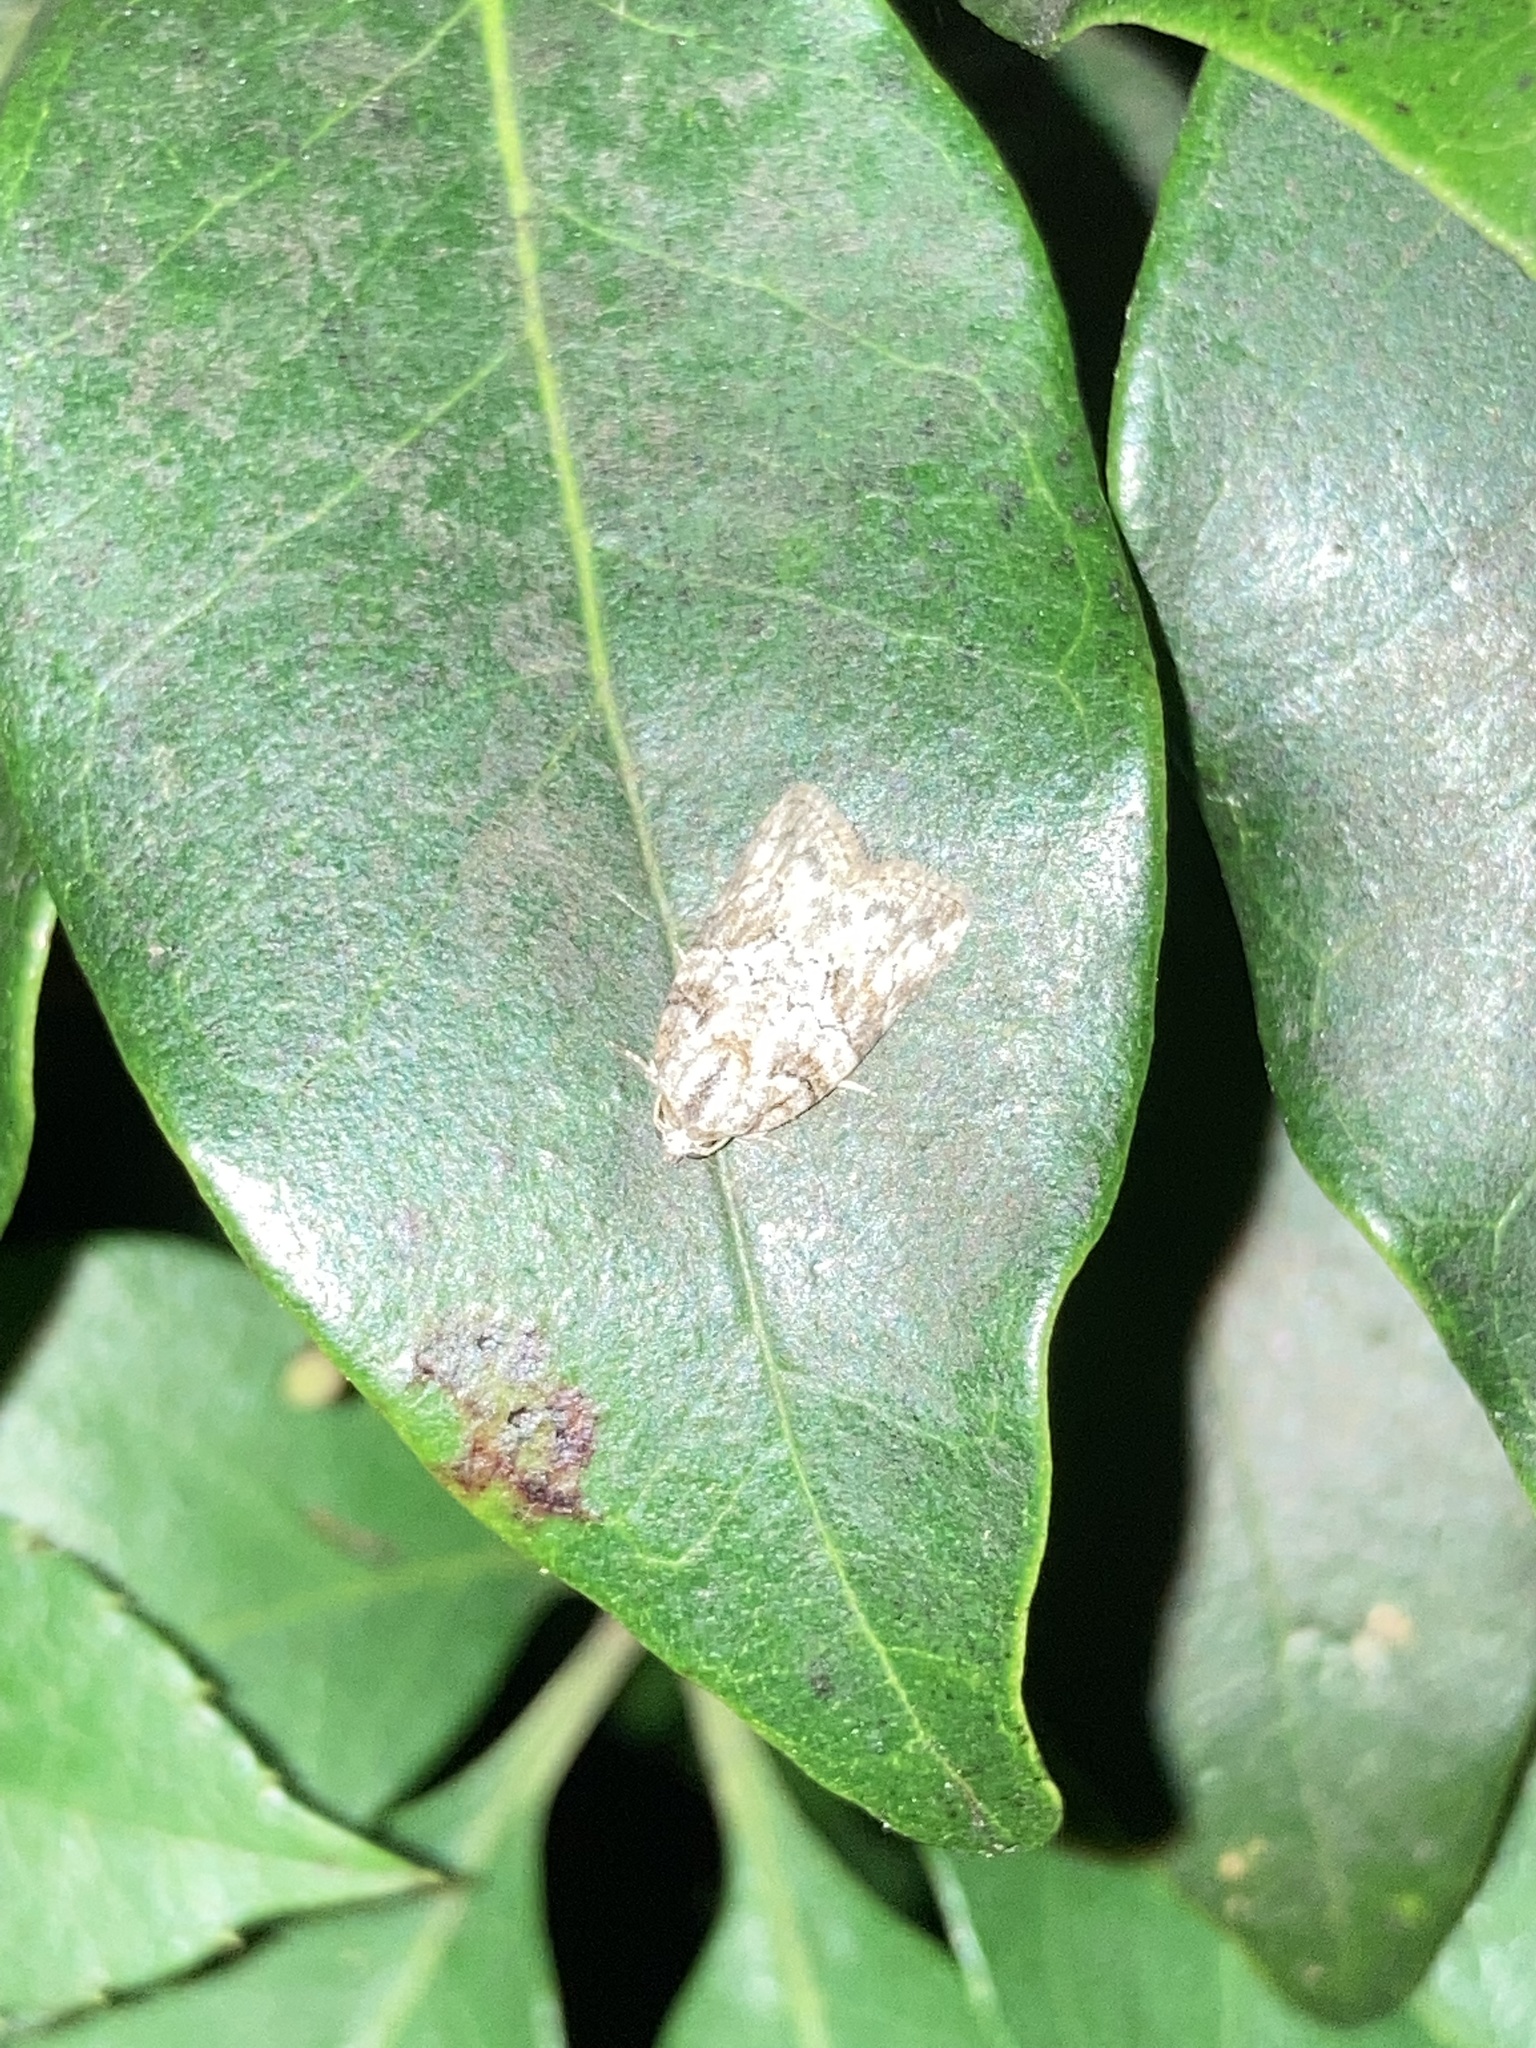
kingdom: Animalia
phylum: Arthropoda
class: Insecta
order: Lepidoptera
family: Nolidae
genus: Garella
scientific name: Garella nilotica
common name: Black-olive caterpillar moth
